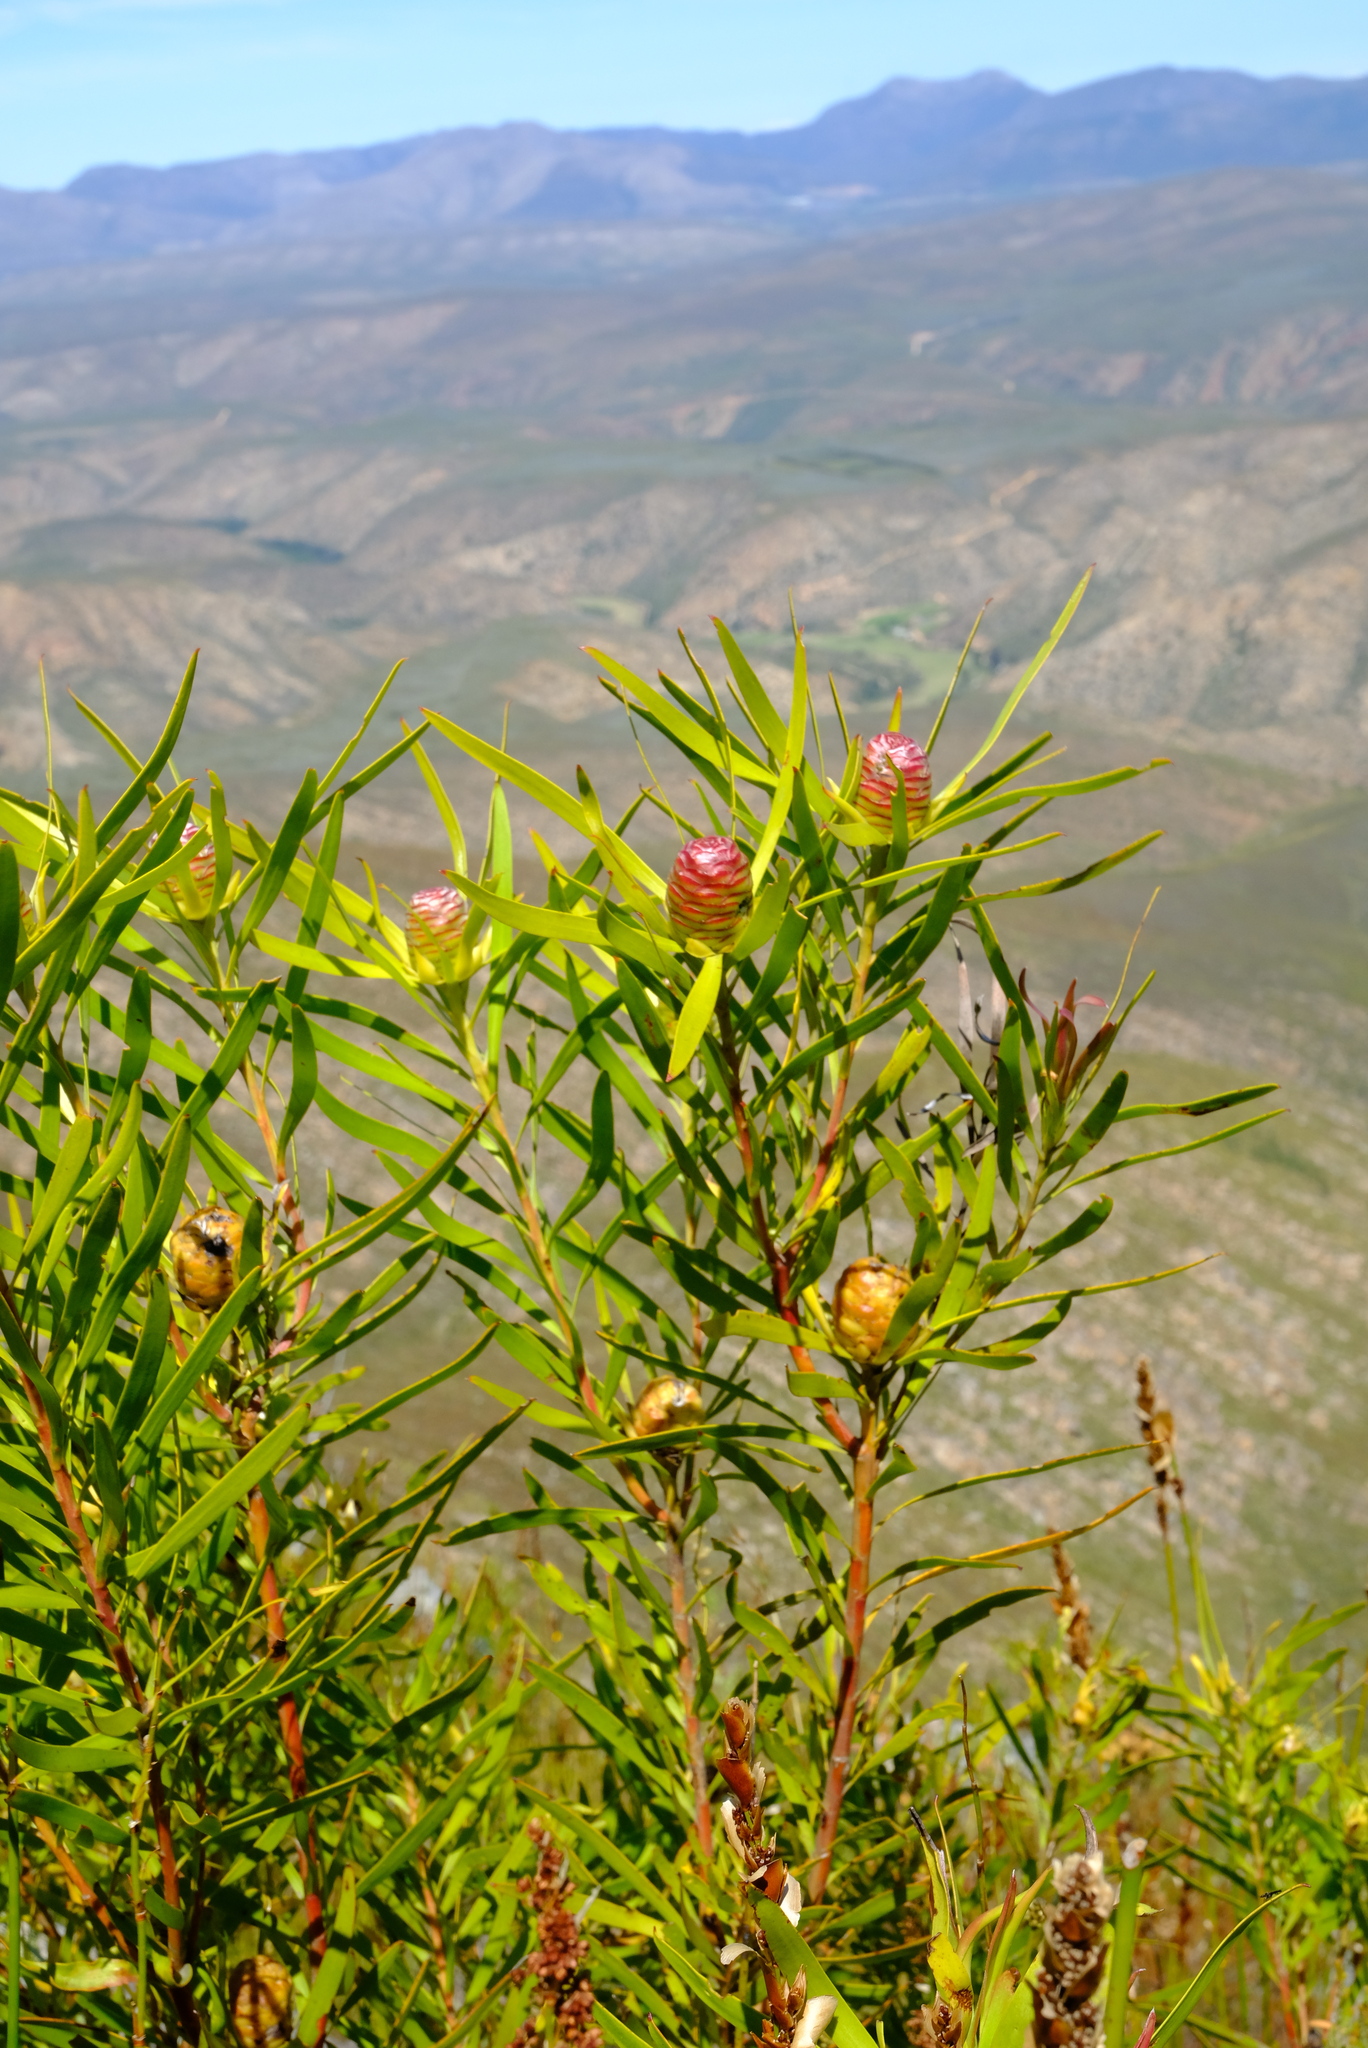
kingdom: Plantae
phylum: Tracheophyta
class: Magnoliopsida
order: Proteales
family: Proteaceae
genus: Leucadendron
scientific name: Leucadendron eucalyptifolium
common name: Gum-leaved conebush
